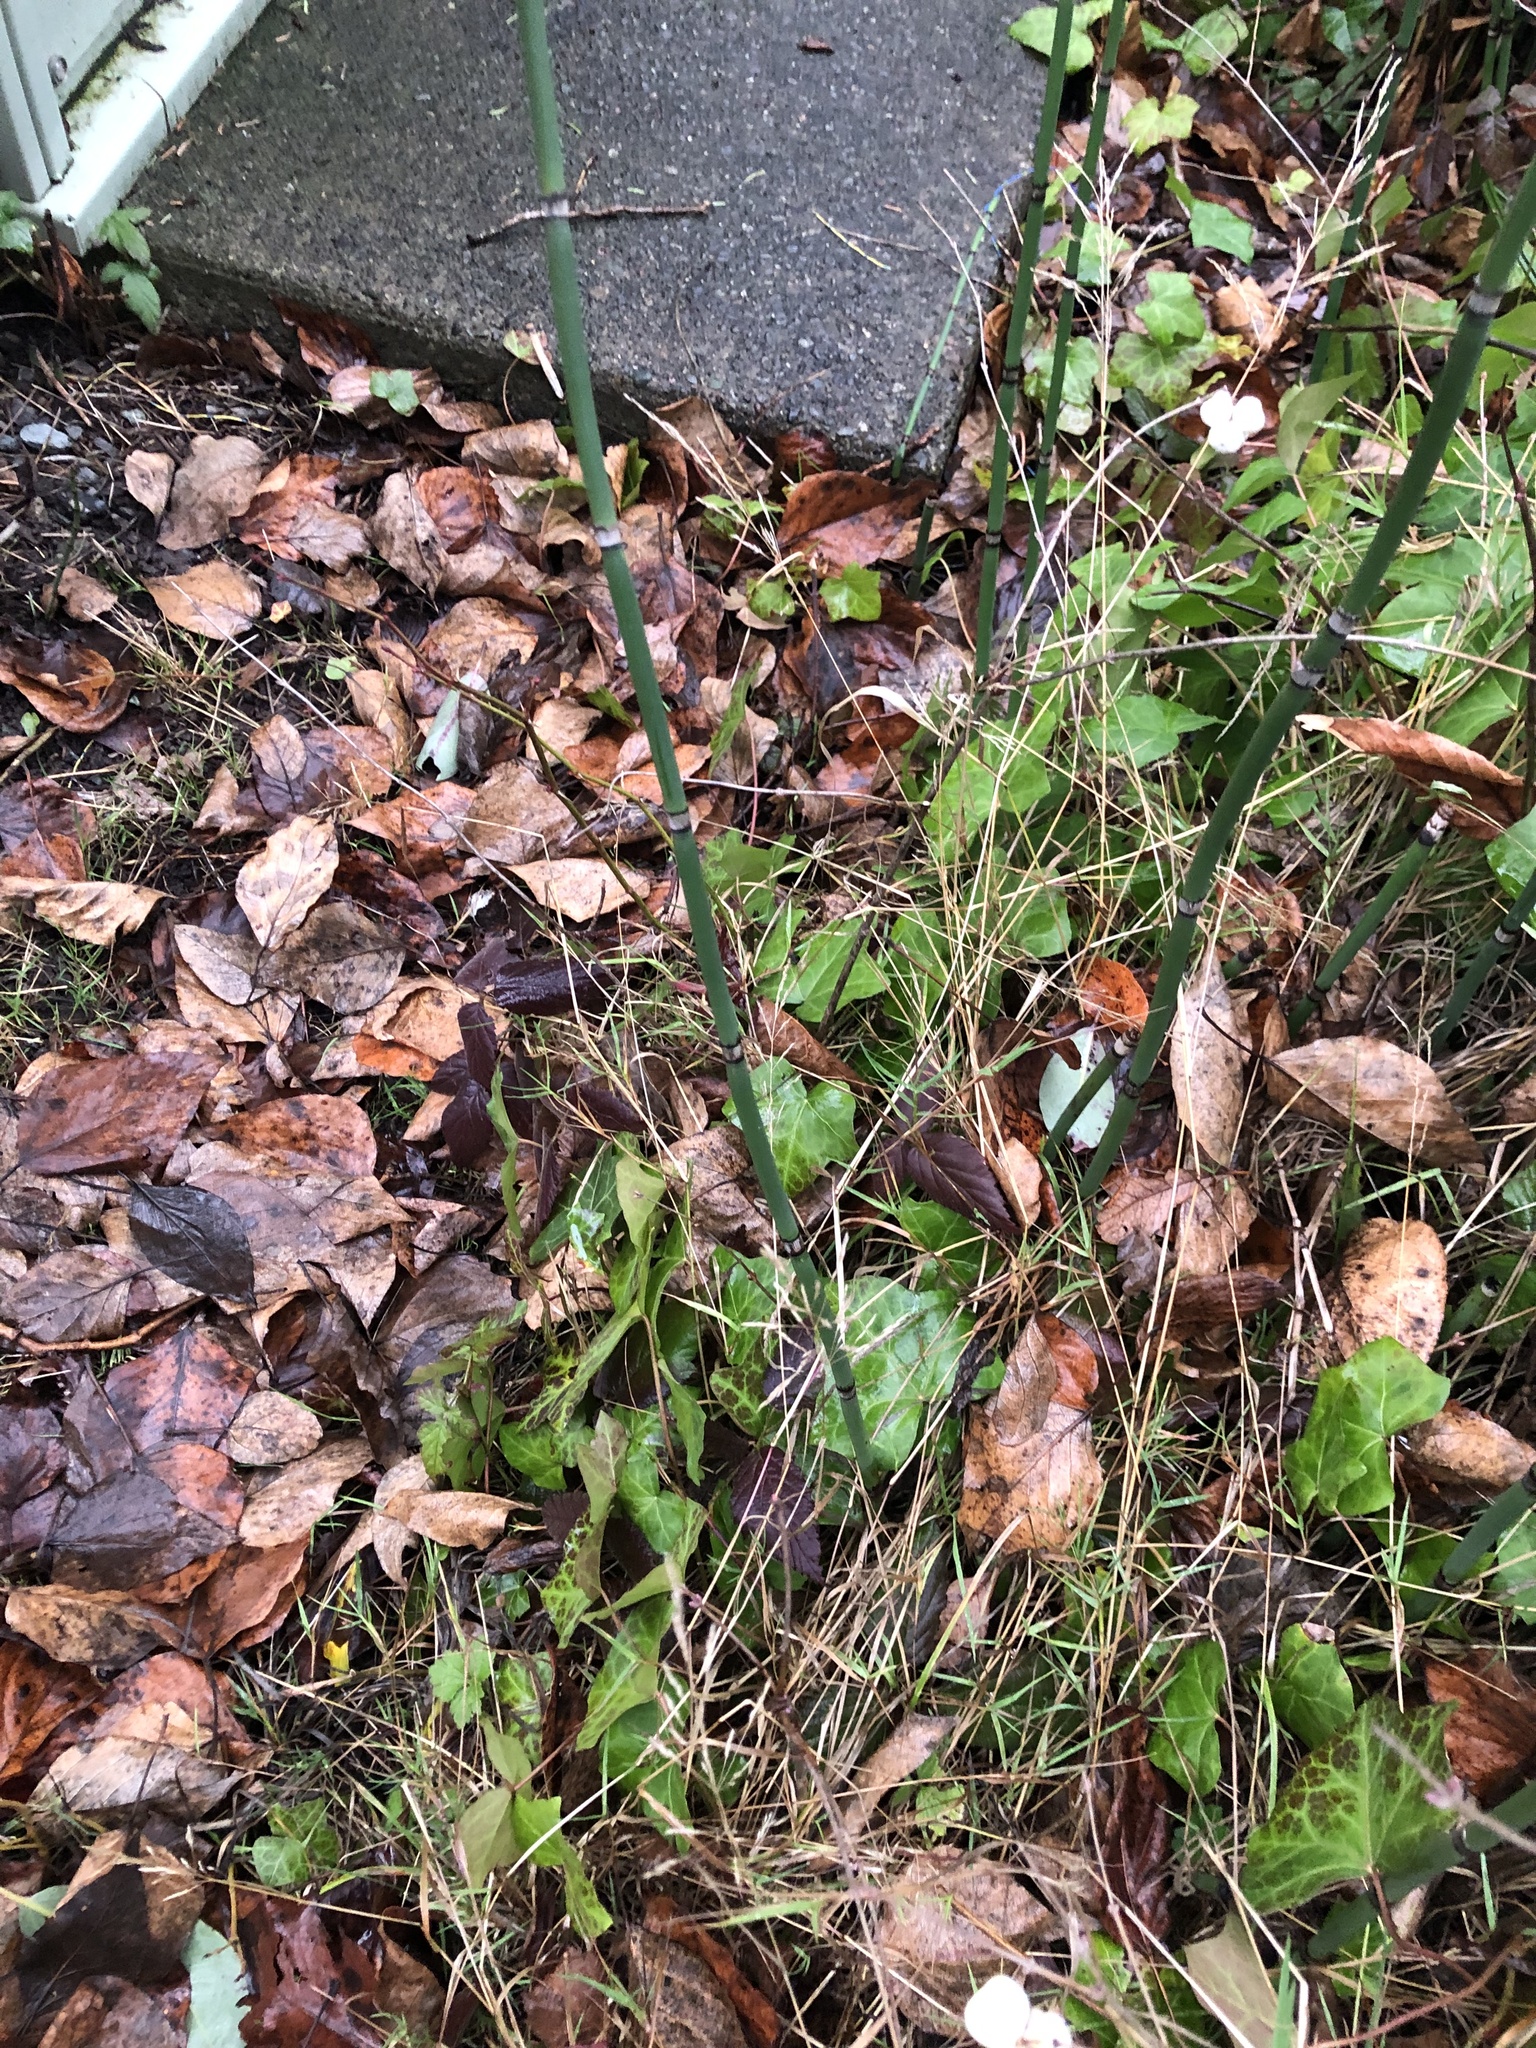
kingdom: Plantae
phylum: Tracheophyta
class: Polypodiopsida
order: Equisetales
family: Equisetaceae
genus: Equisetum
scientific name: Equisetum praealtum
